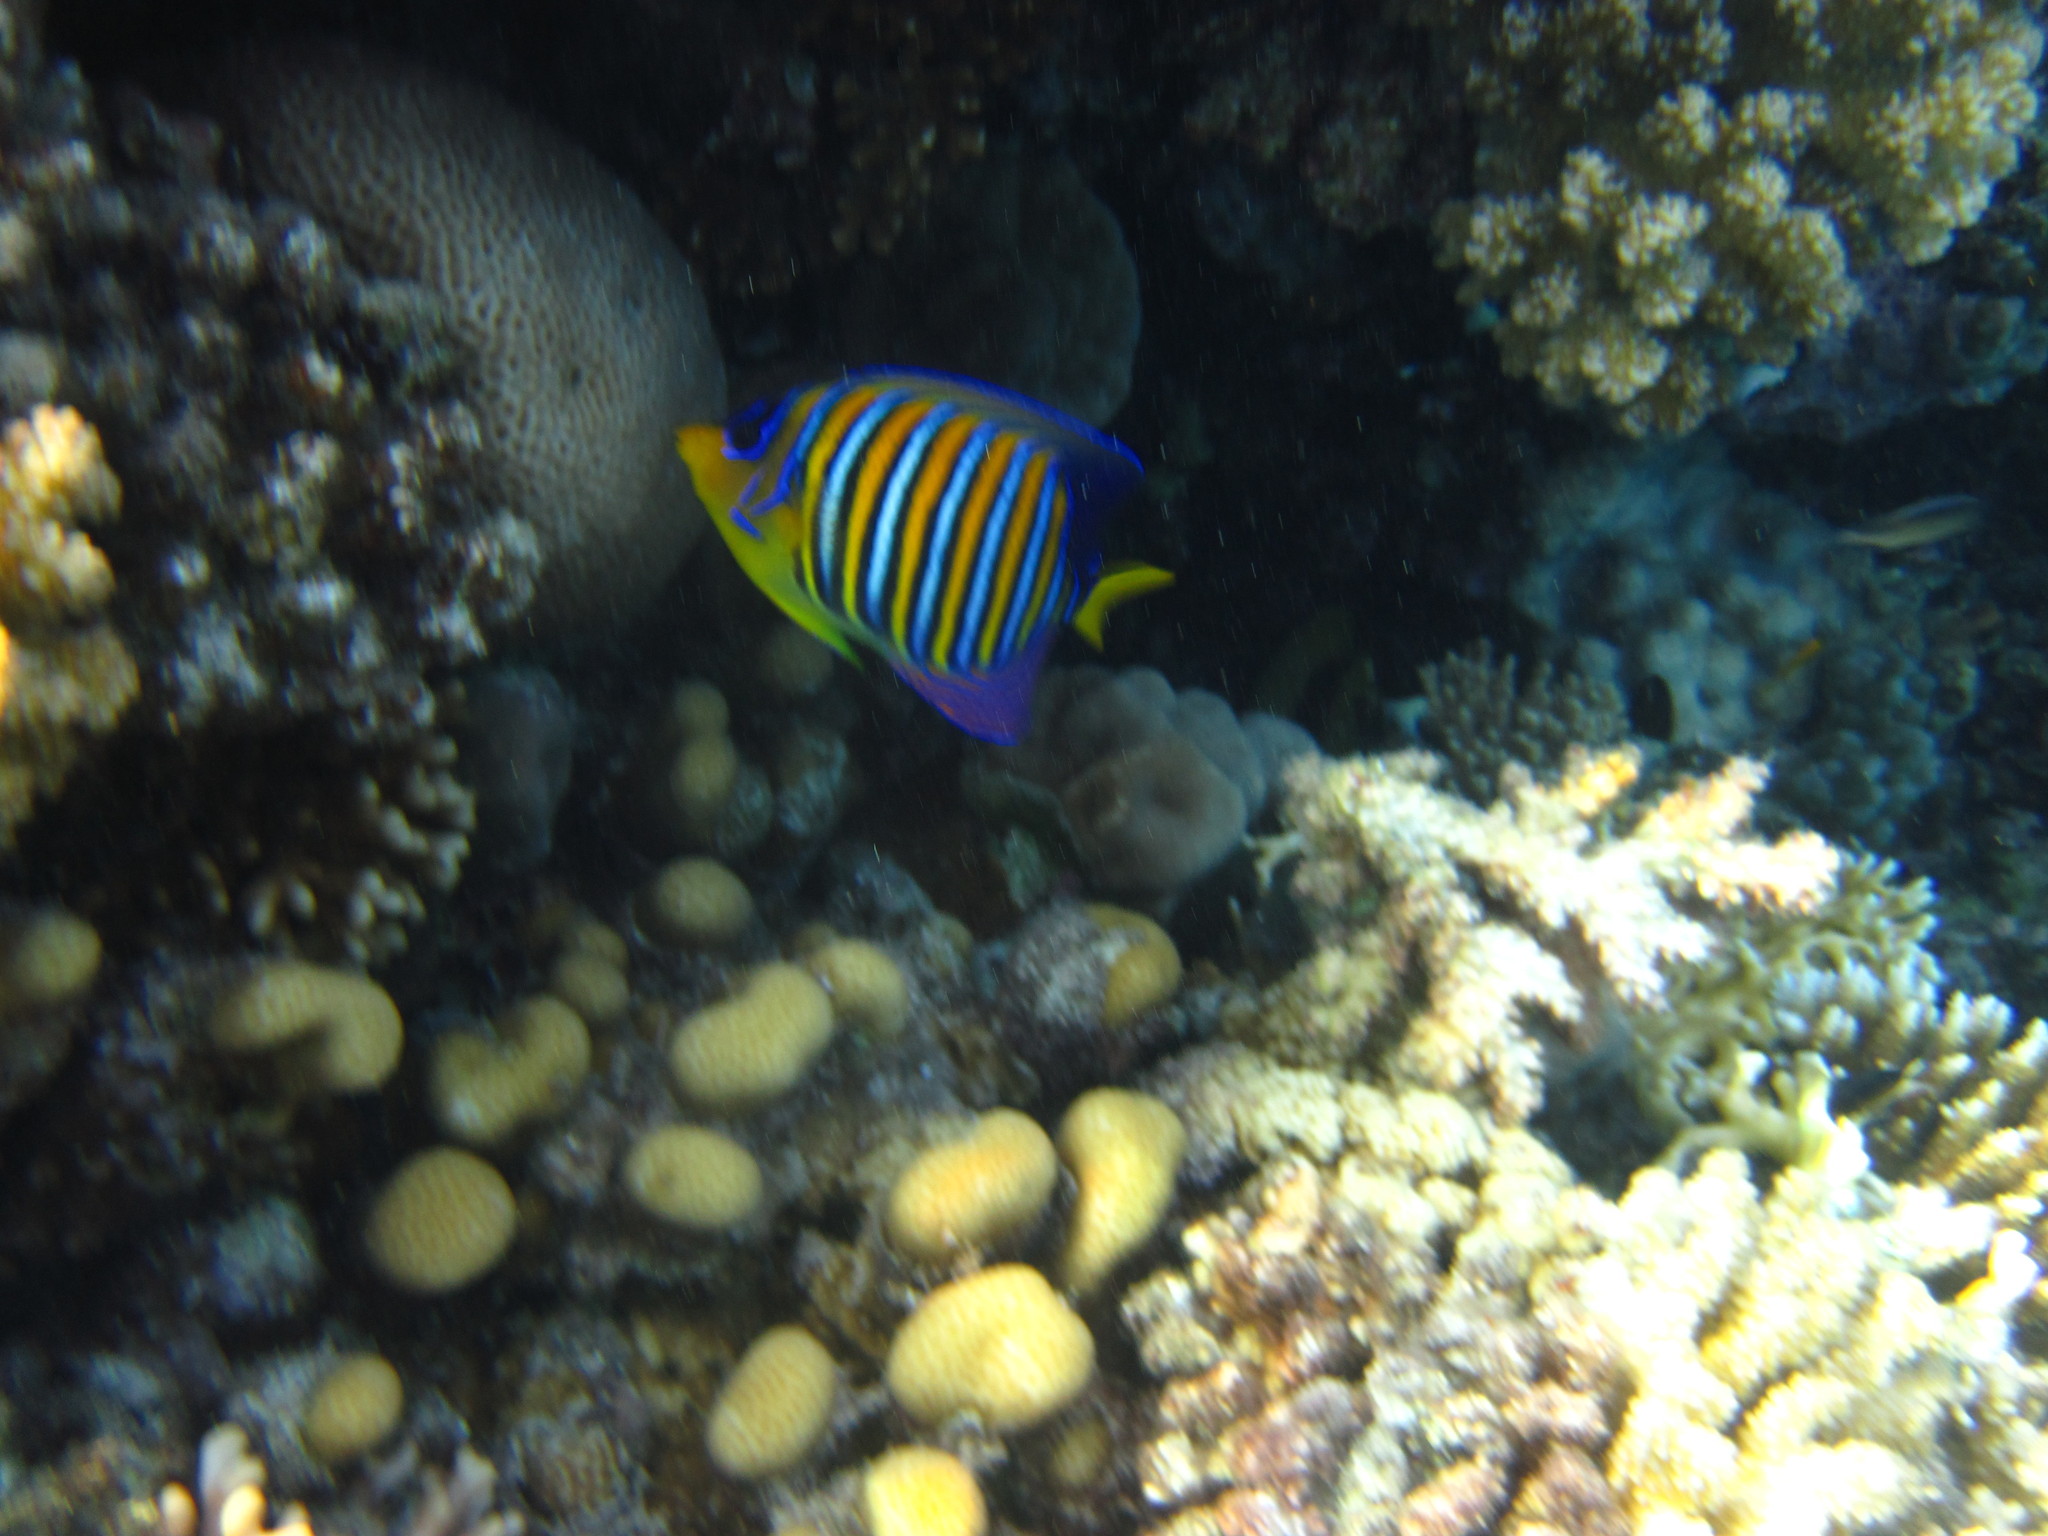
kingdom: Animalia
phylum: Chordata
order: Perciformes
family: Pomacanthidae
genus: Pygoplites
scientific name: Pygoplites diacanthus
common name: Regal angelfish
